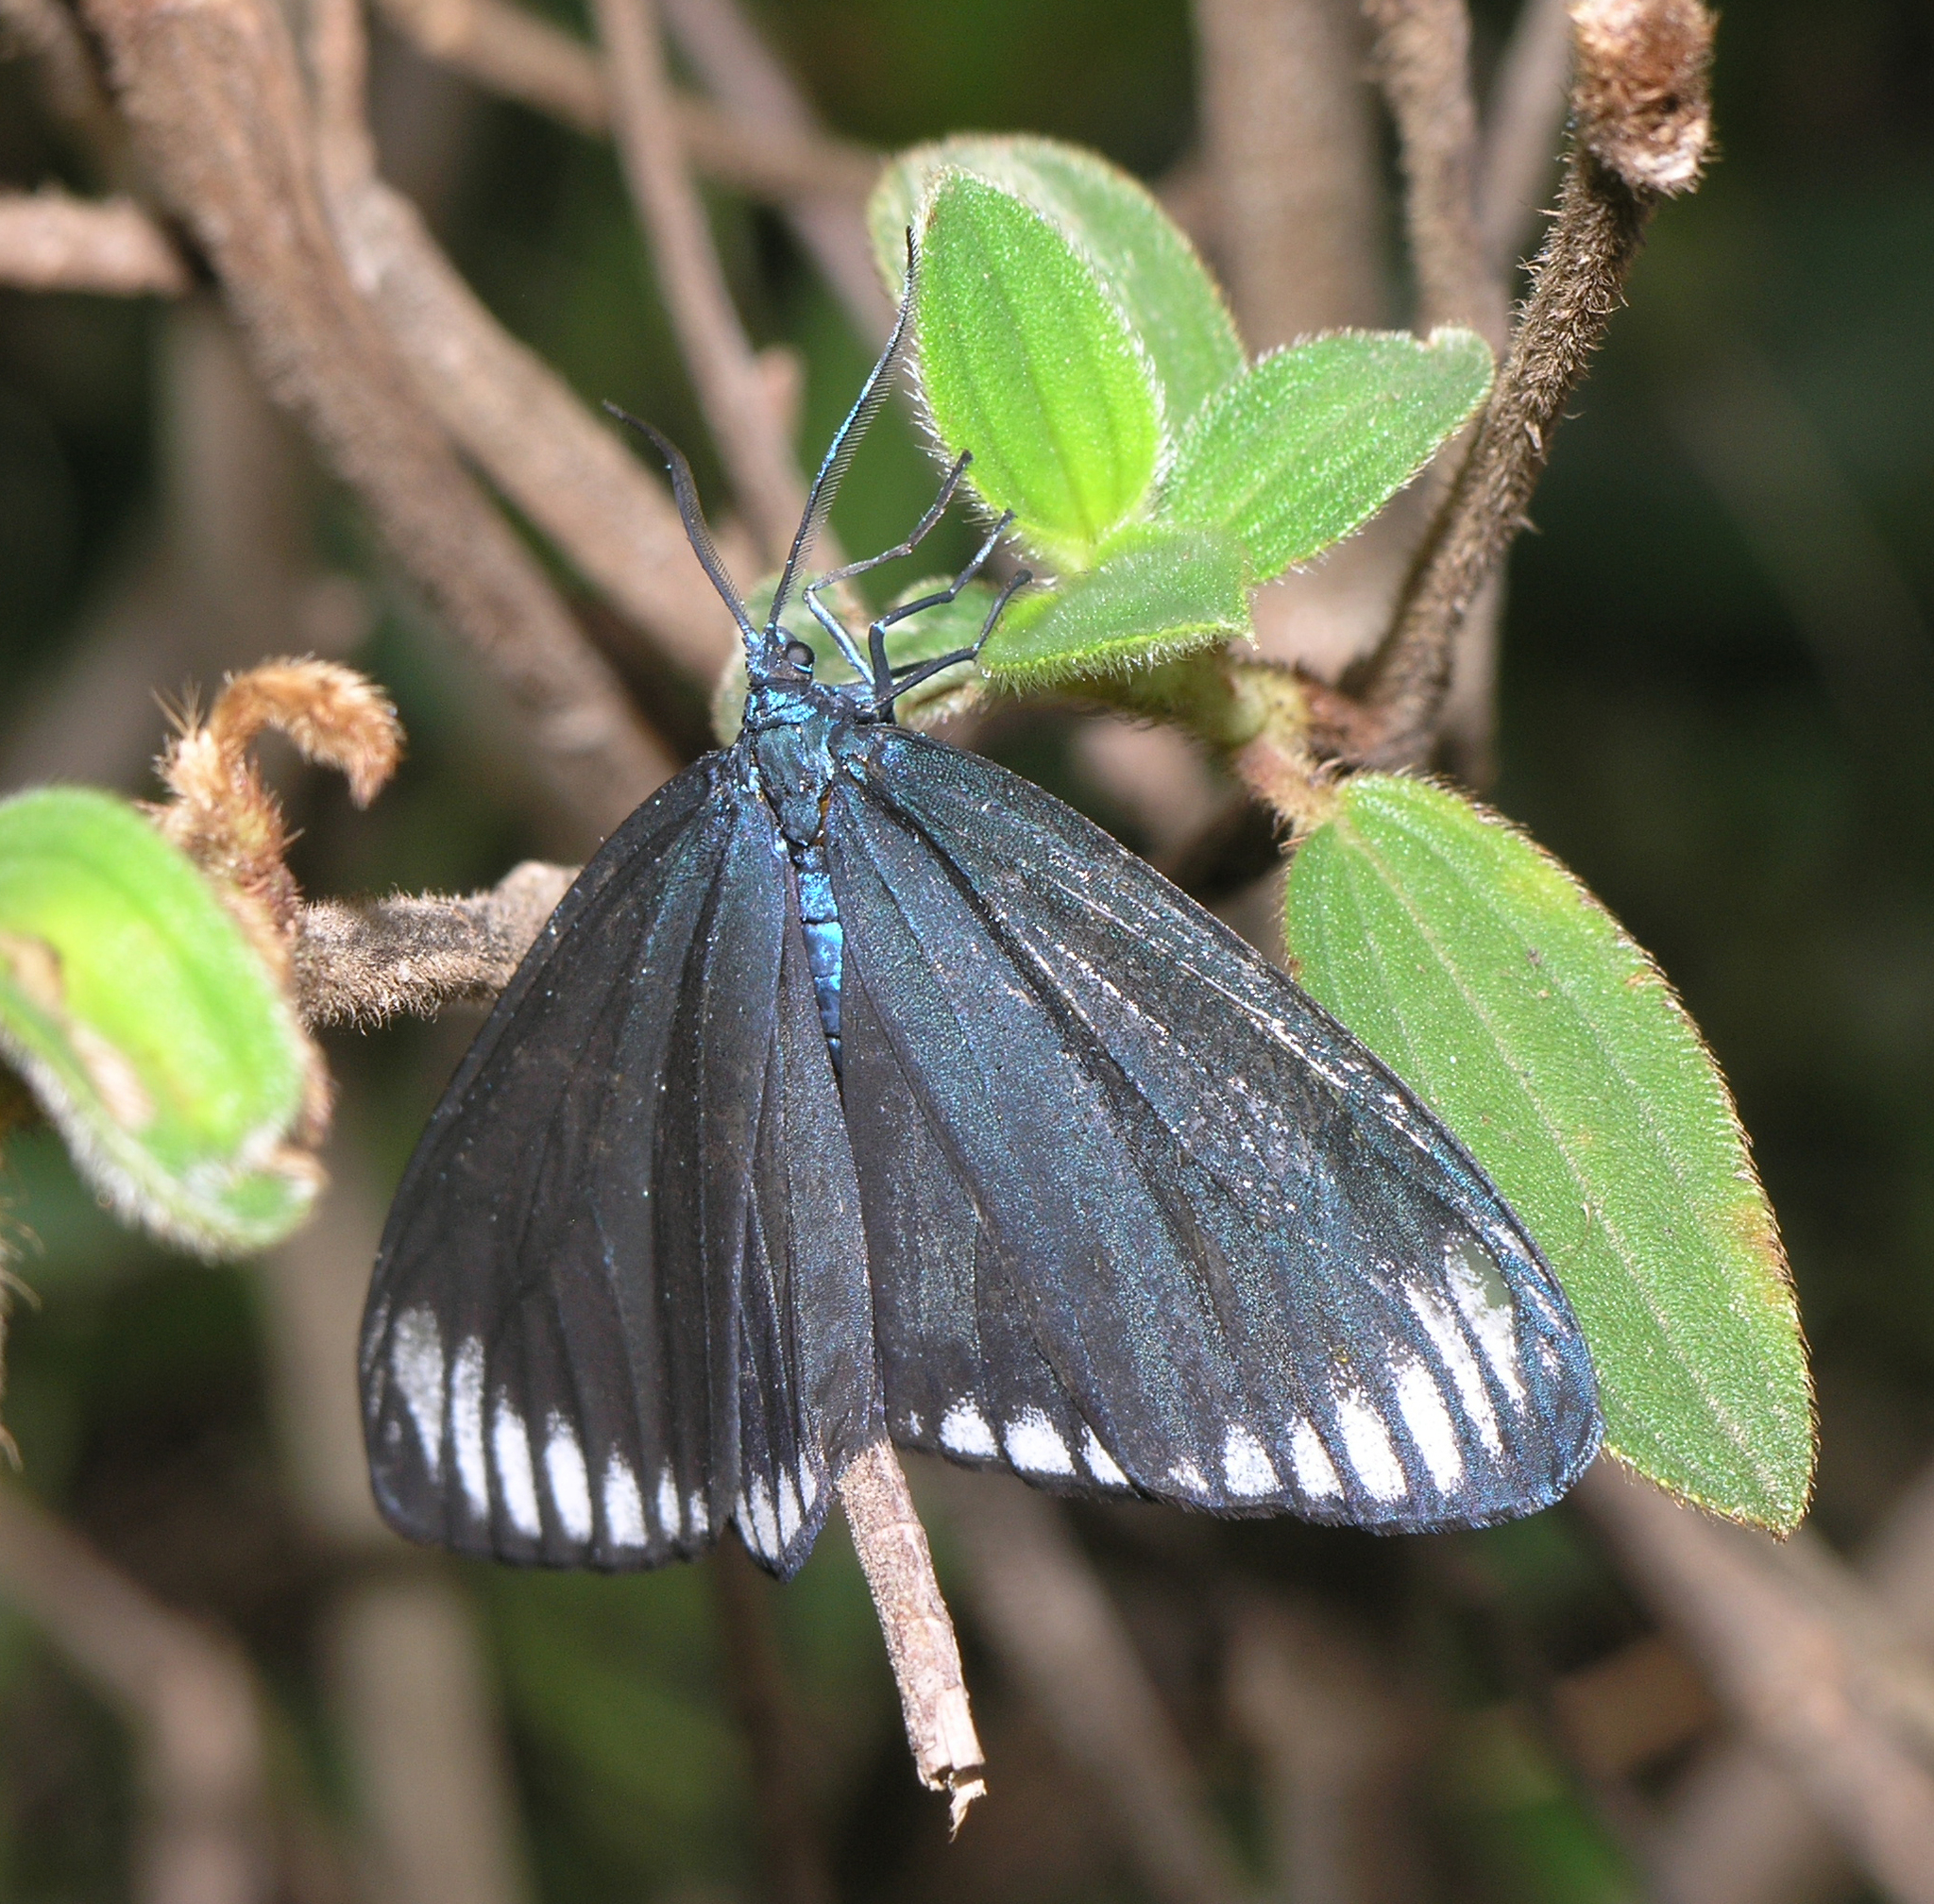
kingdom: Animalia
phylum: Arthropoda
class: Insecta
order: Lepidoptera
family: Zygaenidae
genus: Cyclosia
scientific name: Cyclosia panthona
